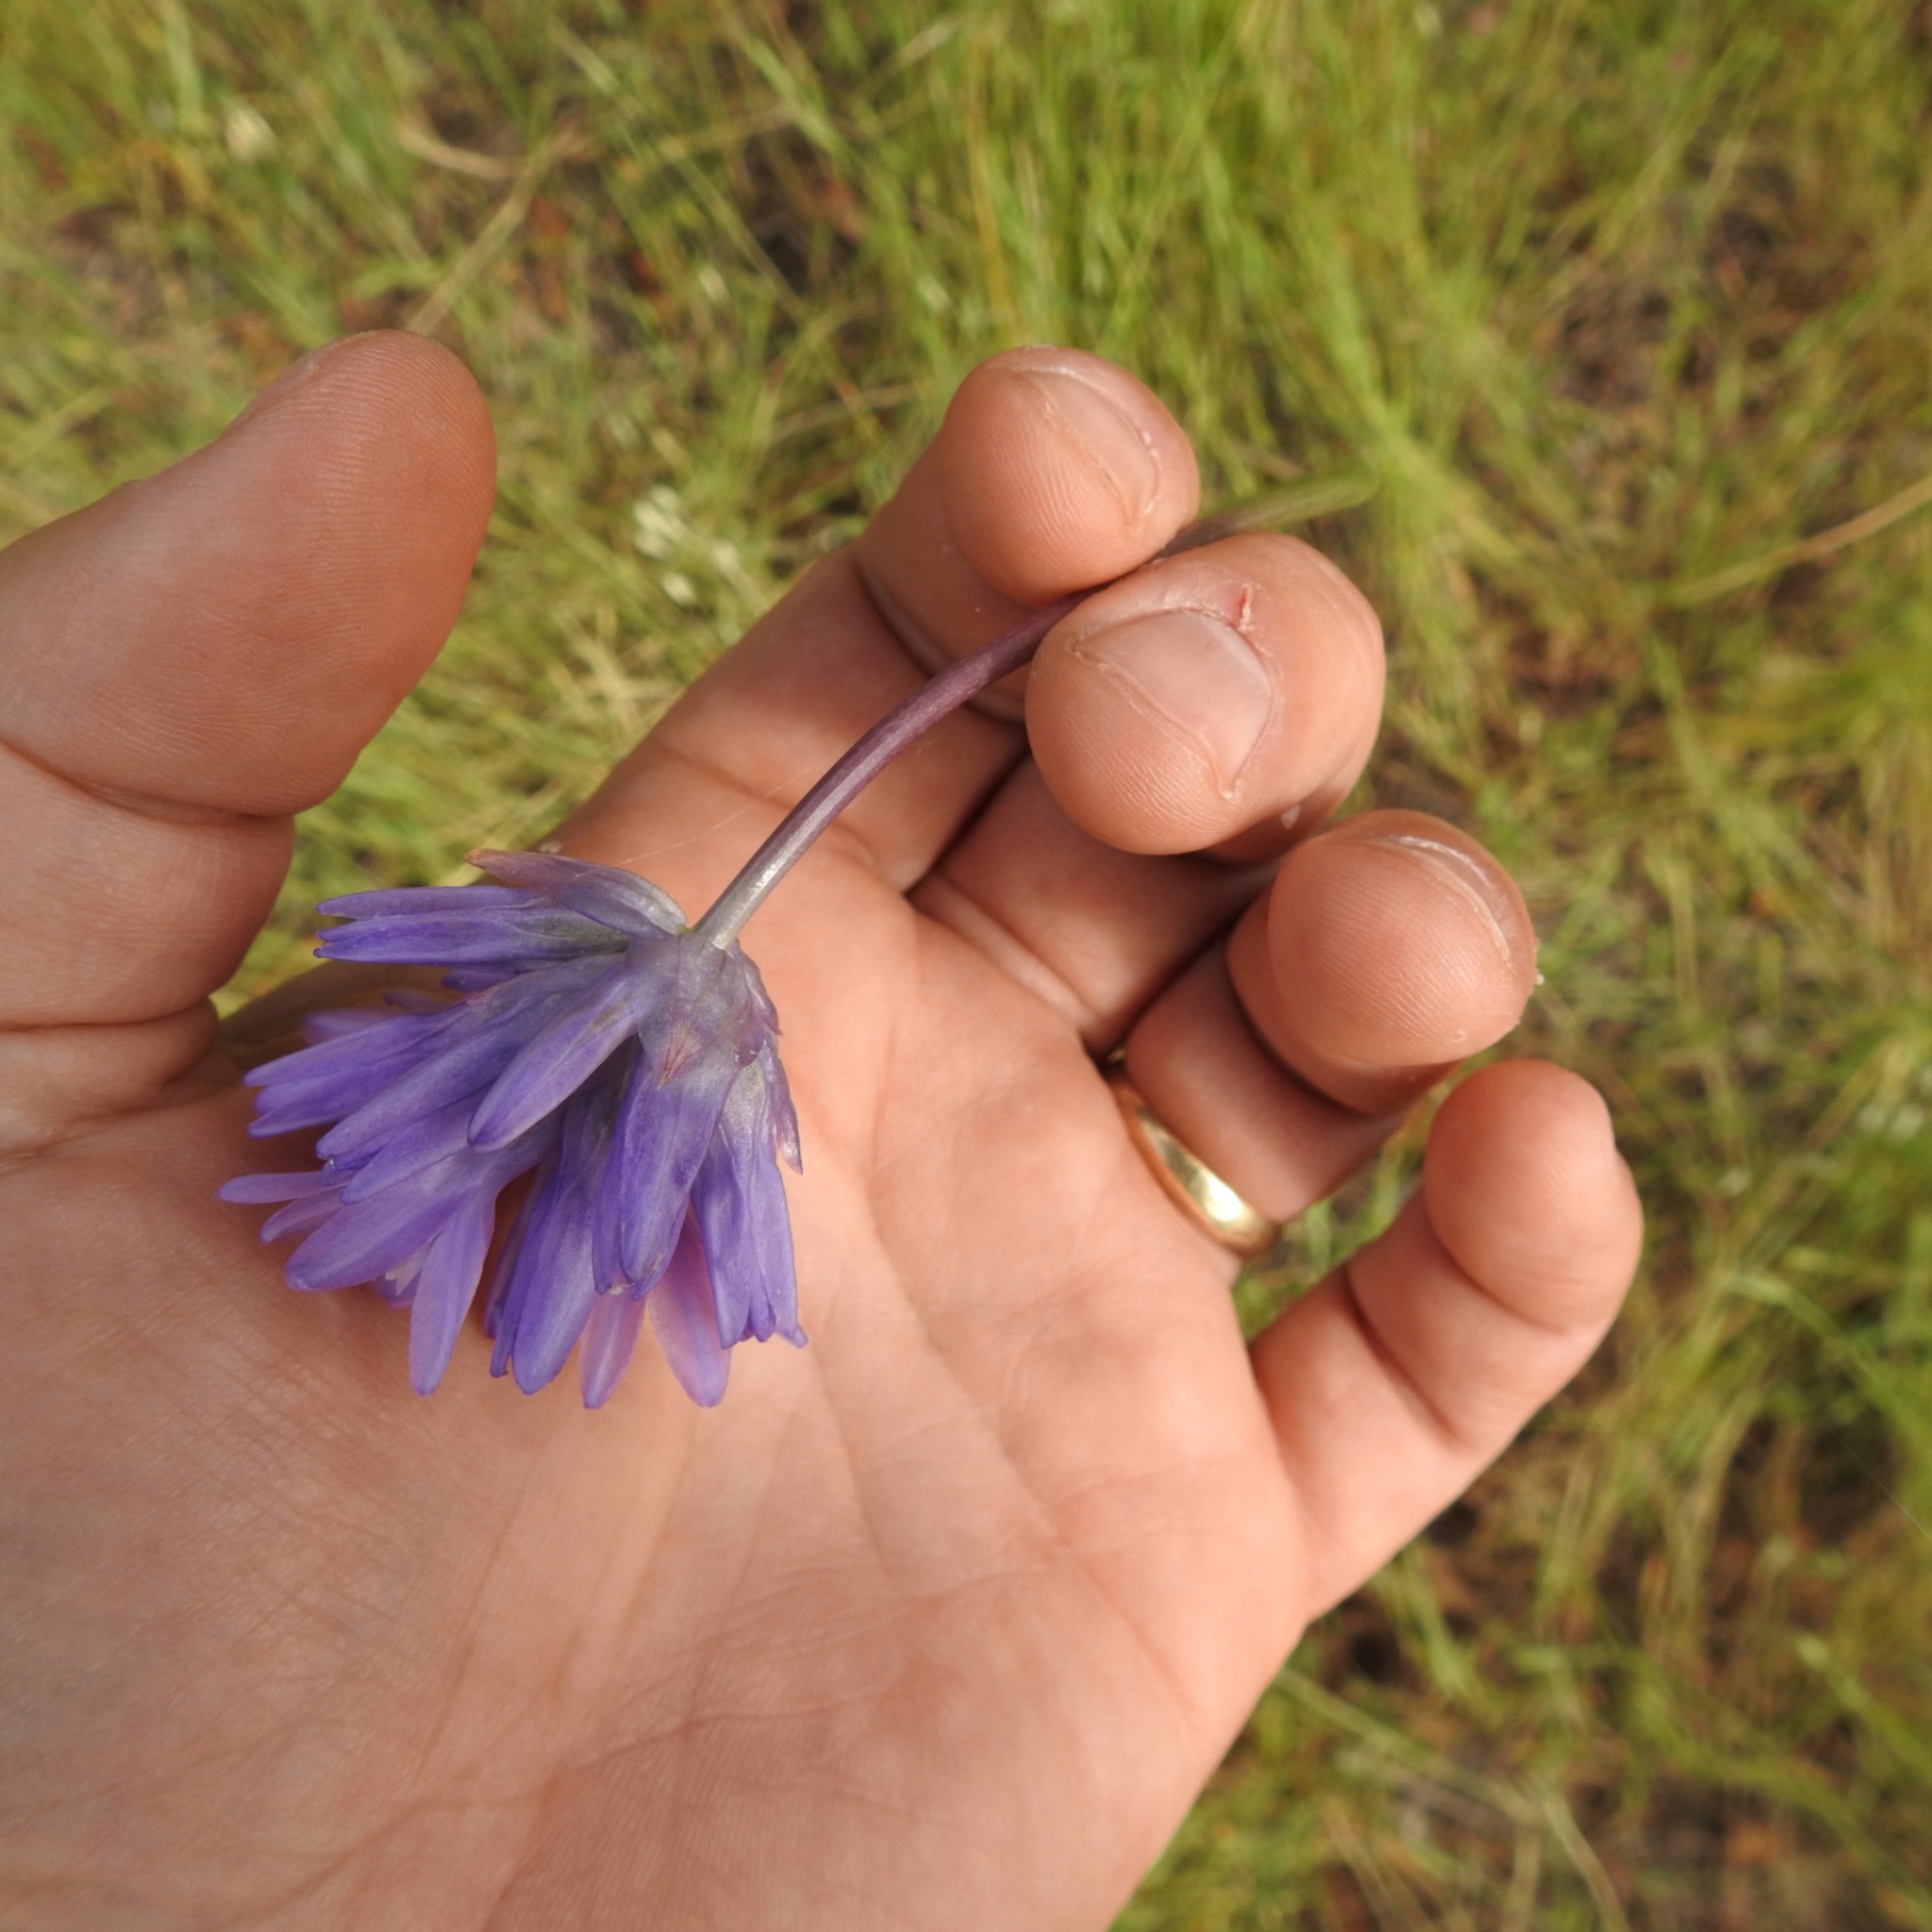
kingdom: Plantae
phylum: Tracheophyta
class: Liliopsida
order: Asparagales
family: Asparagaceae
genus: Dichelostemma
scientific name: Dichelostemma congestum
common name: Fork-tooth ookow
